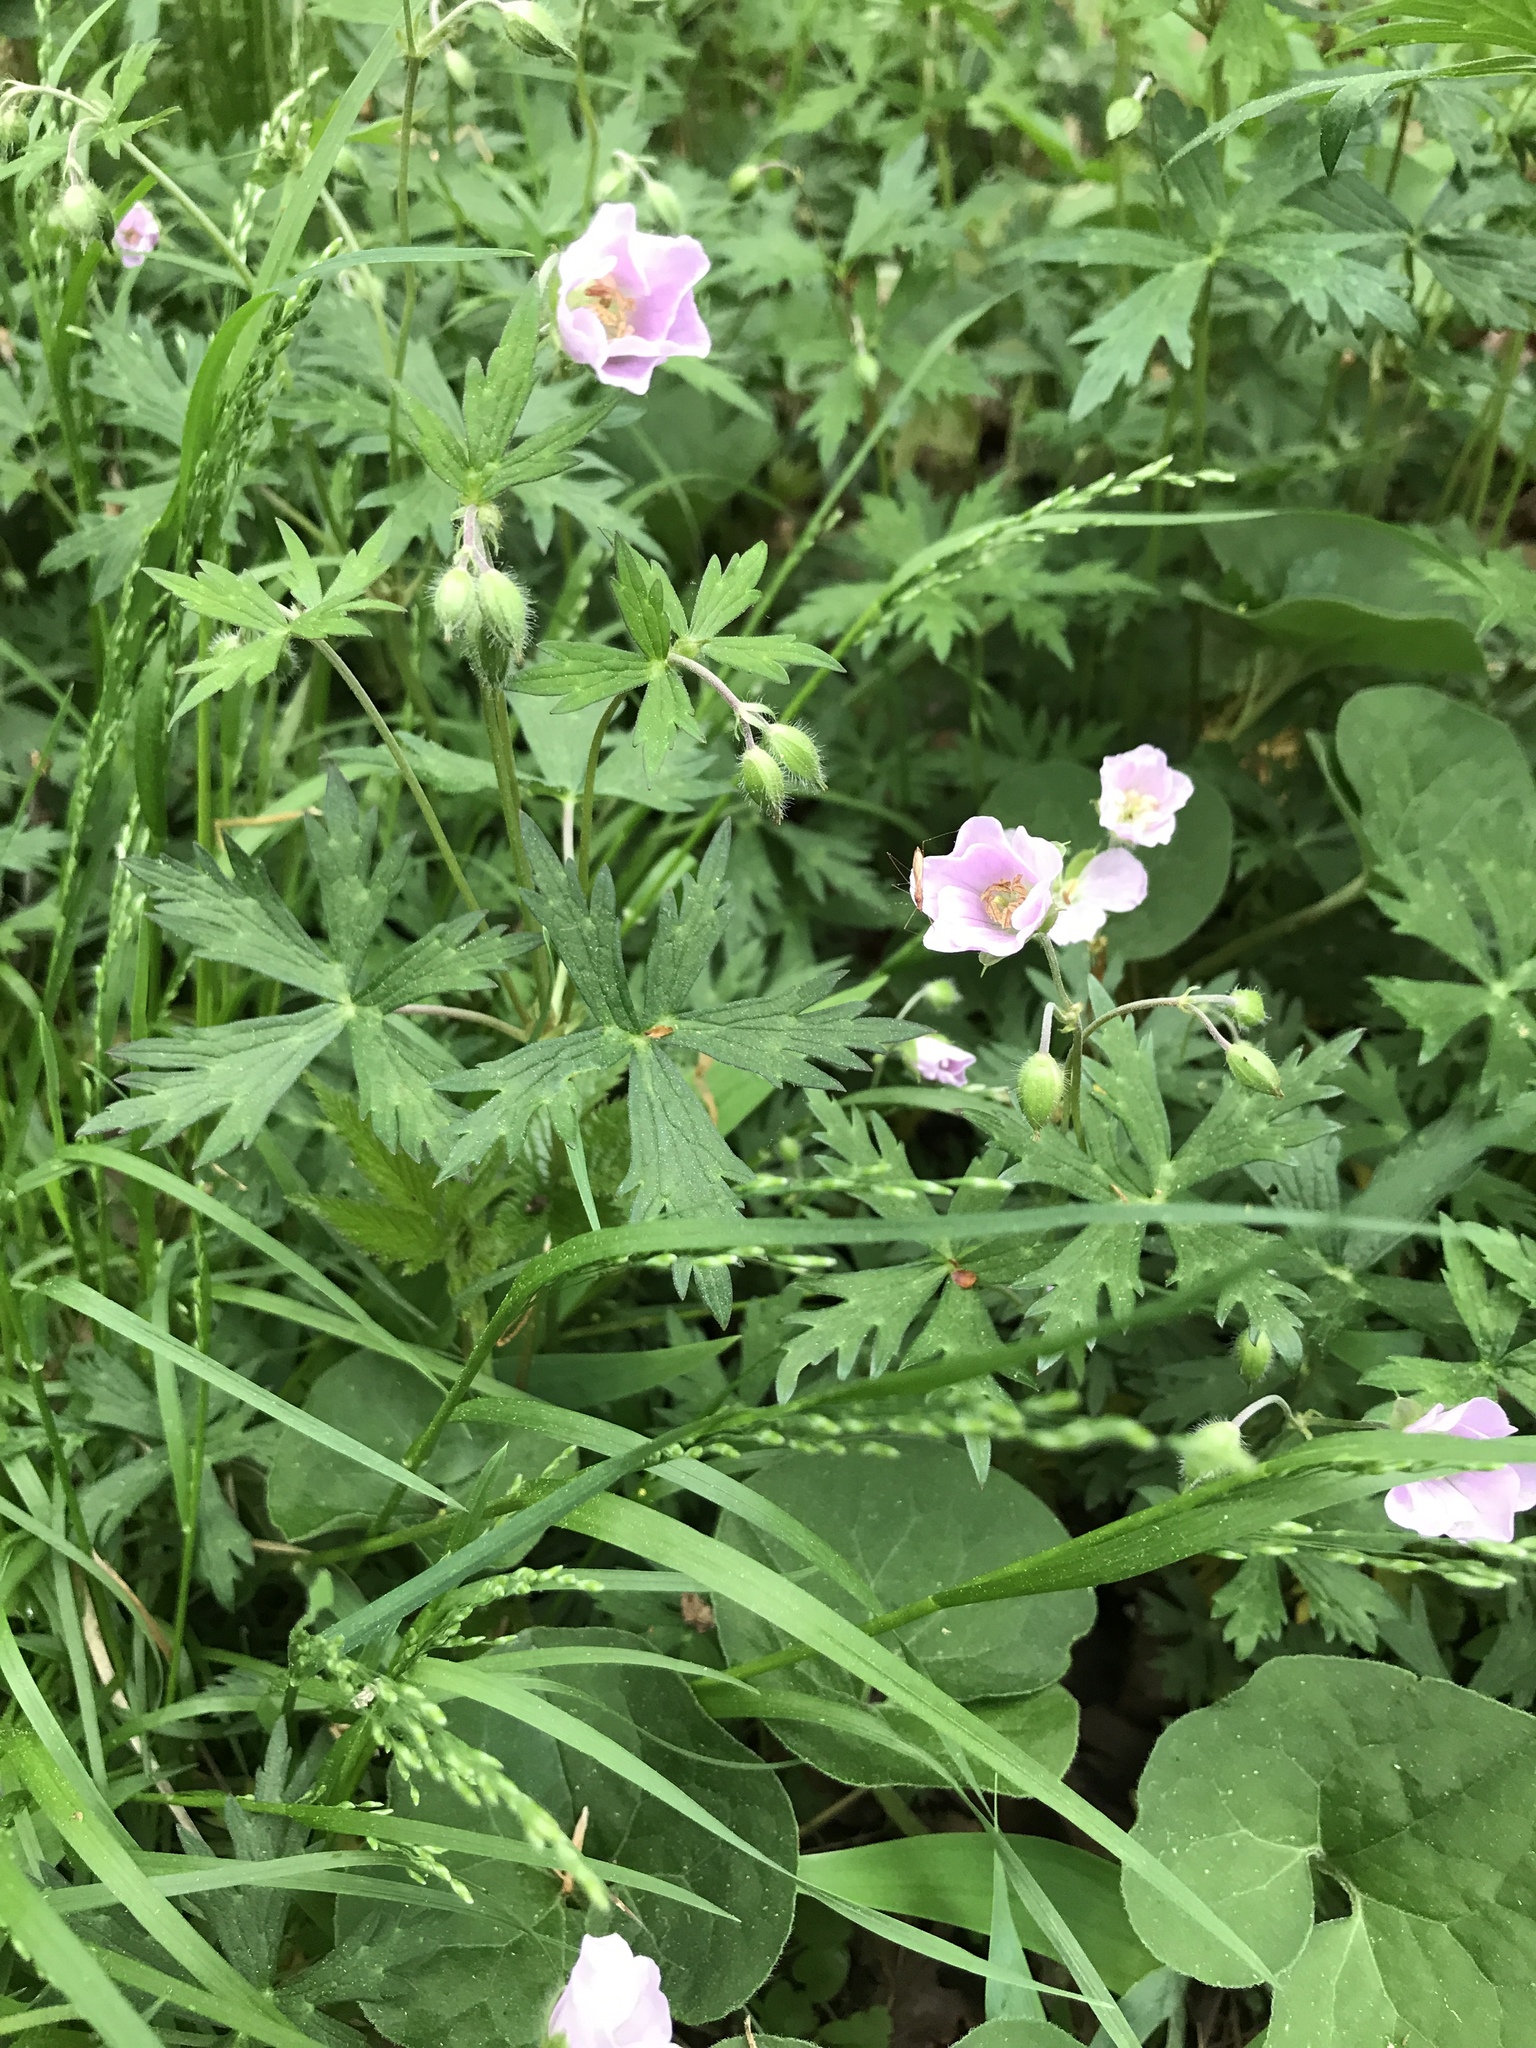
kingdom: Plantae
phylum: Tracheophyta
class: Magnoliopsida
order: Geraniales
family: Geraniaceae
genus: Geranium
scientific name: Geranium maculatum
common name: Spotted geranium
